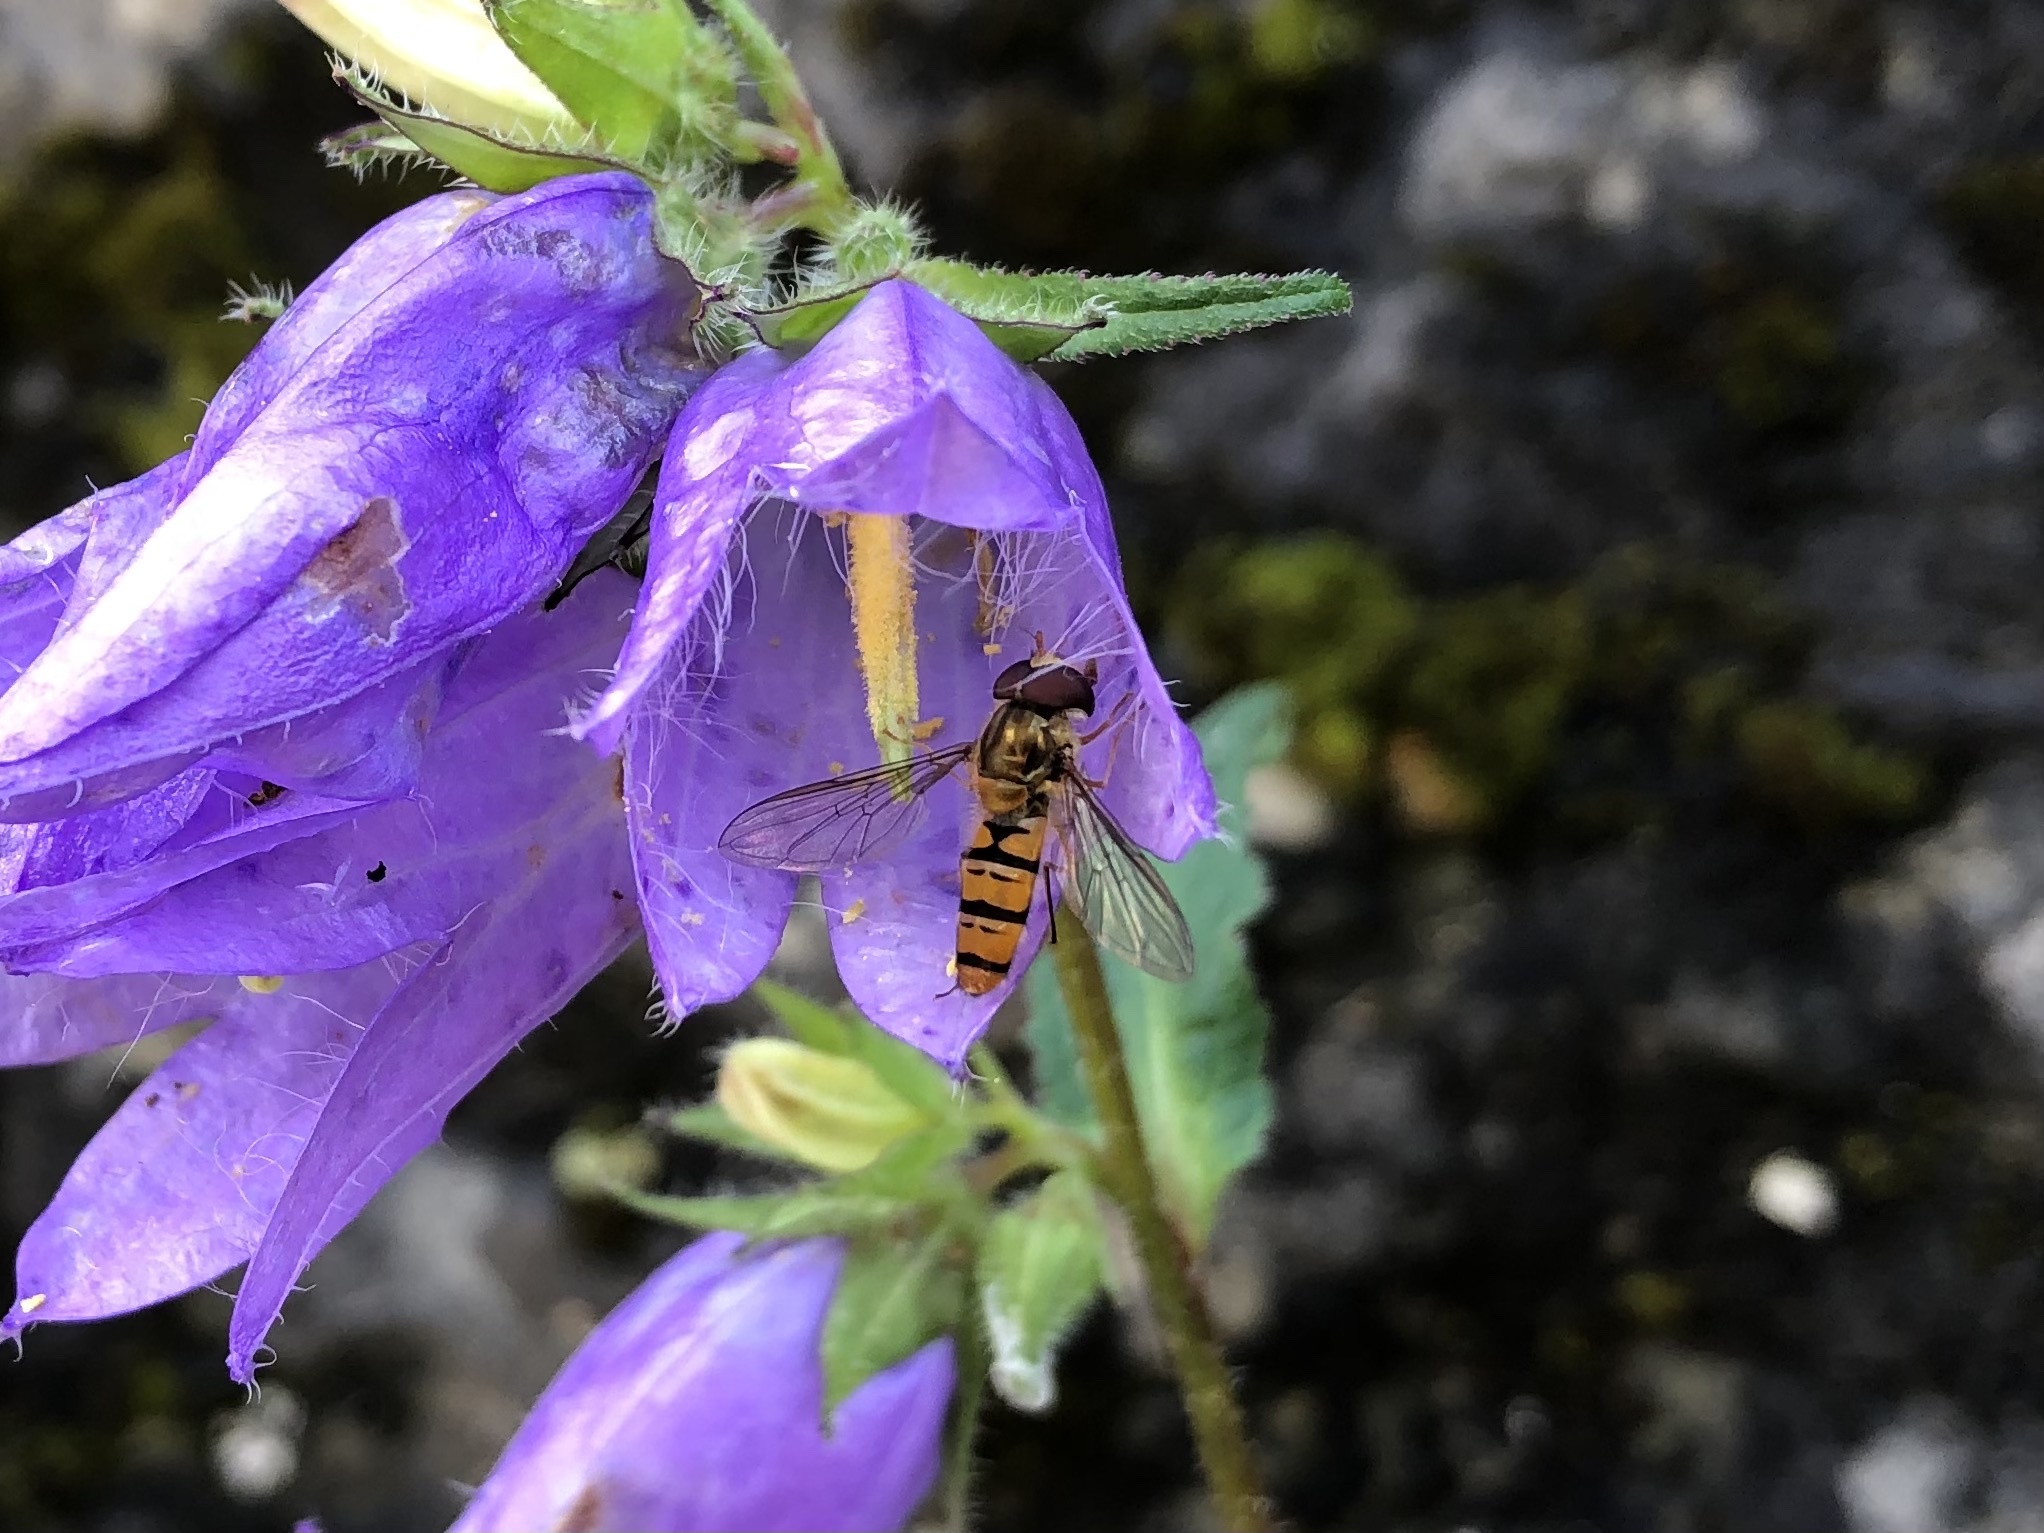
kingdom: Animalia
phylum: Arthropoda
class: Insecta
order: Diptera
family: Syrphidae
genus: Episyrphus
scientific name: Episyrphus balteatus
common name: Marmalade hoverfly
